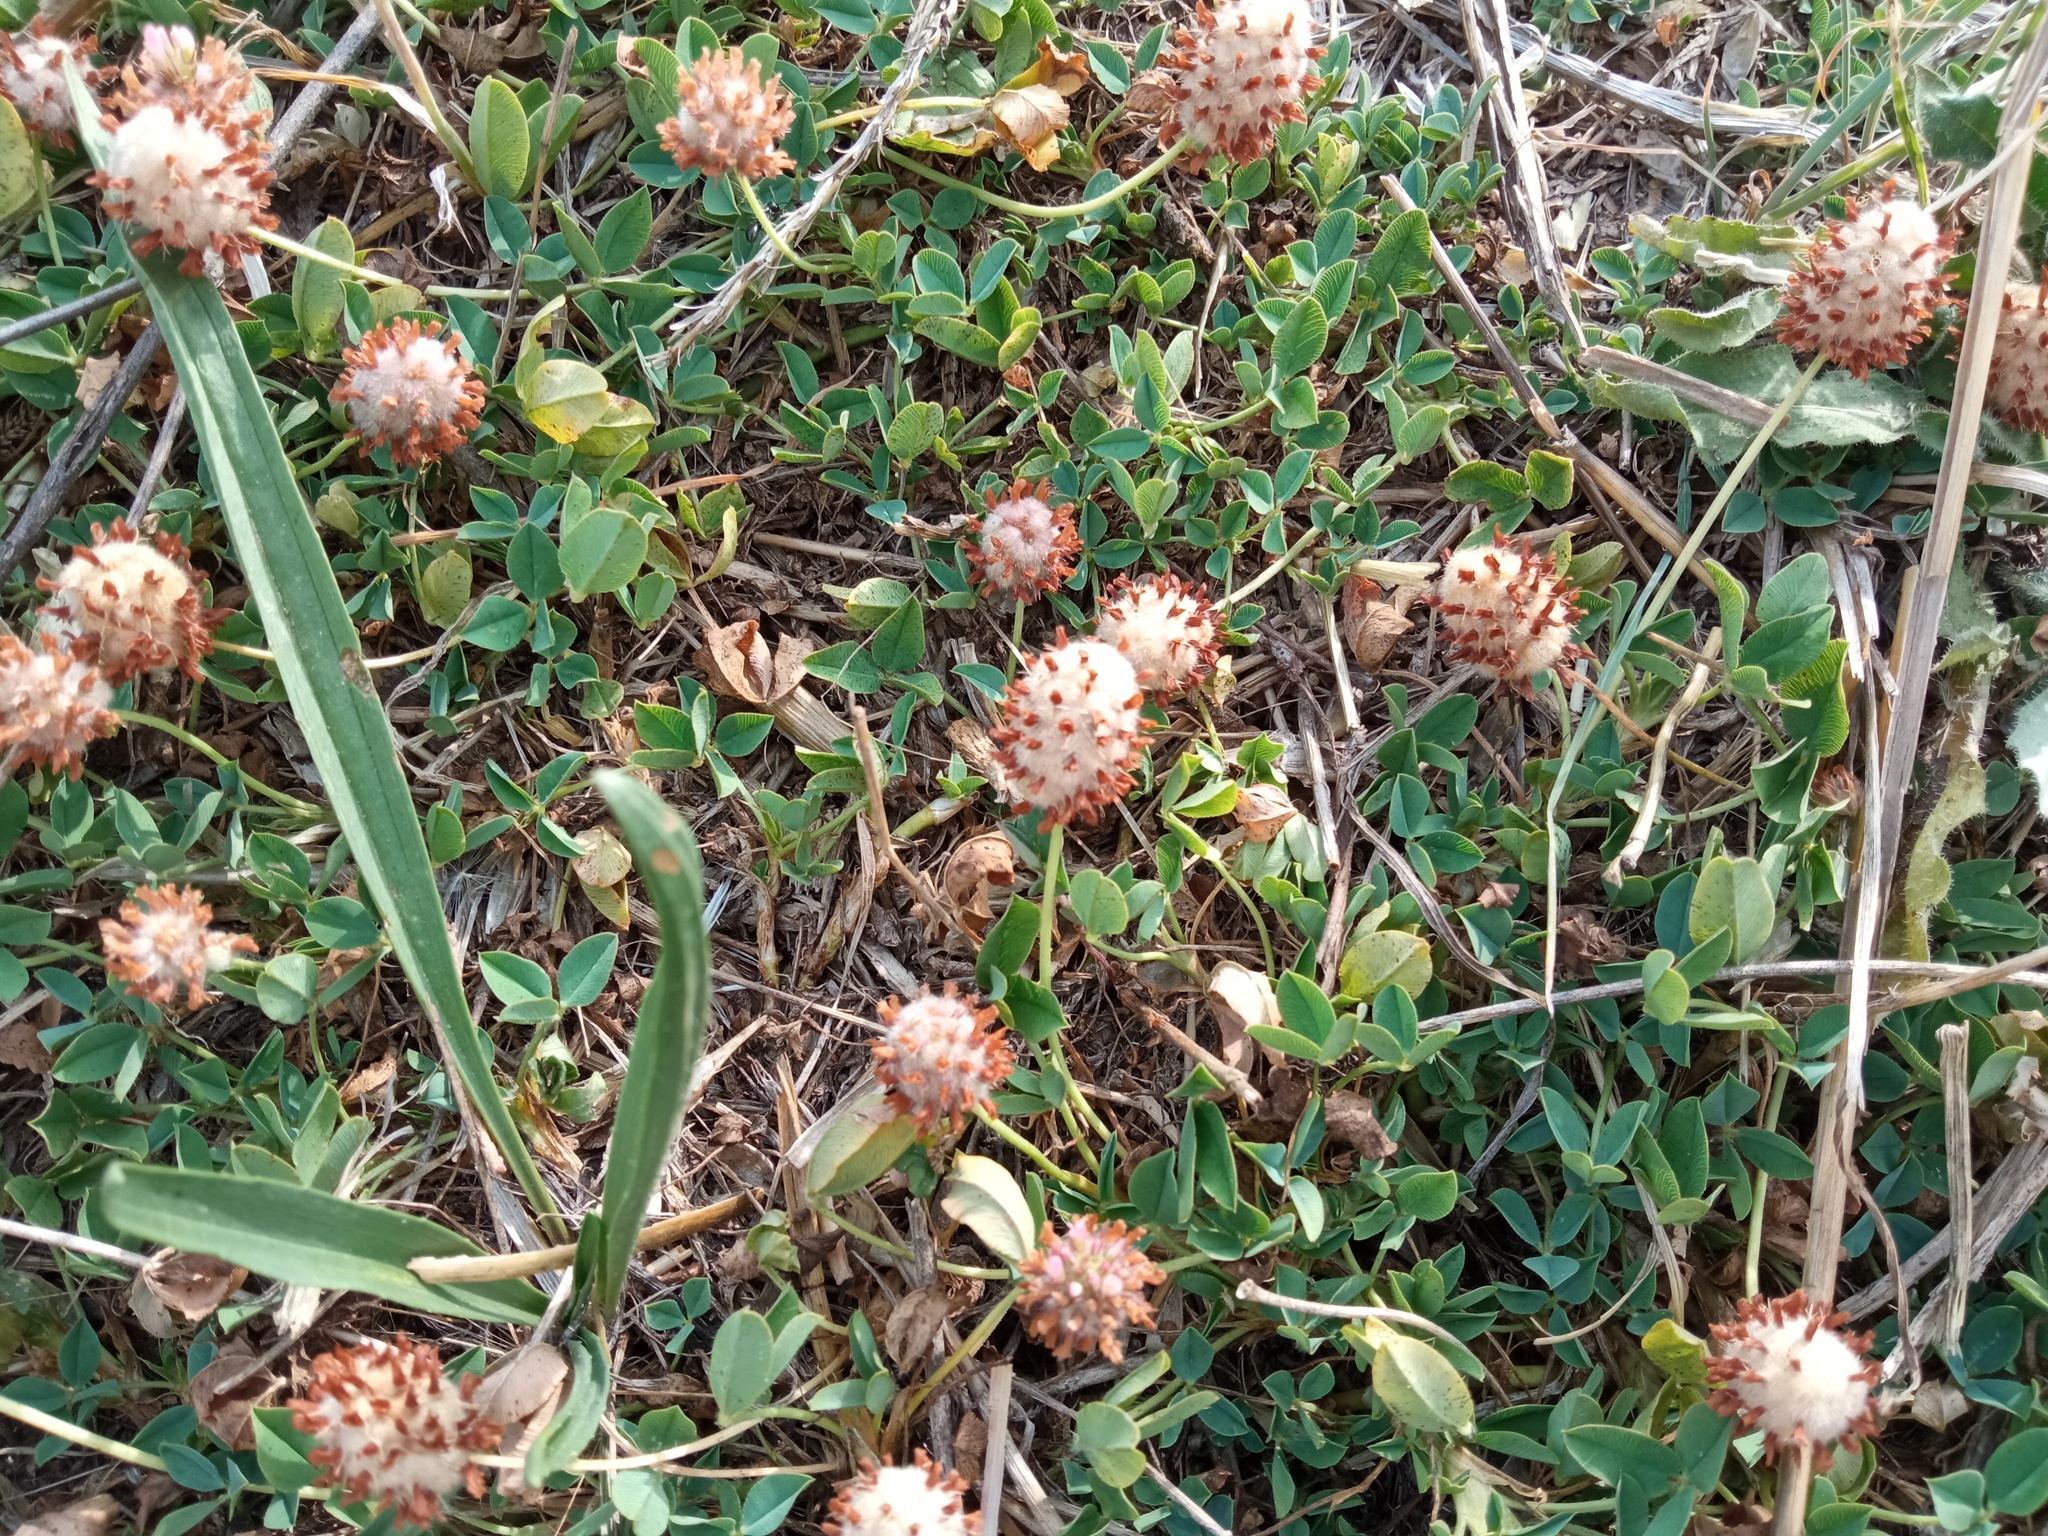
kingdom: Plantae
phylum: Tracheophyta
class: Magnoliopsida
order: Fabales
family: Fabaceae
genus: Trifolium
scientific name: Trifolium fragiferum
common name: Strawberry clover
